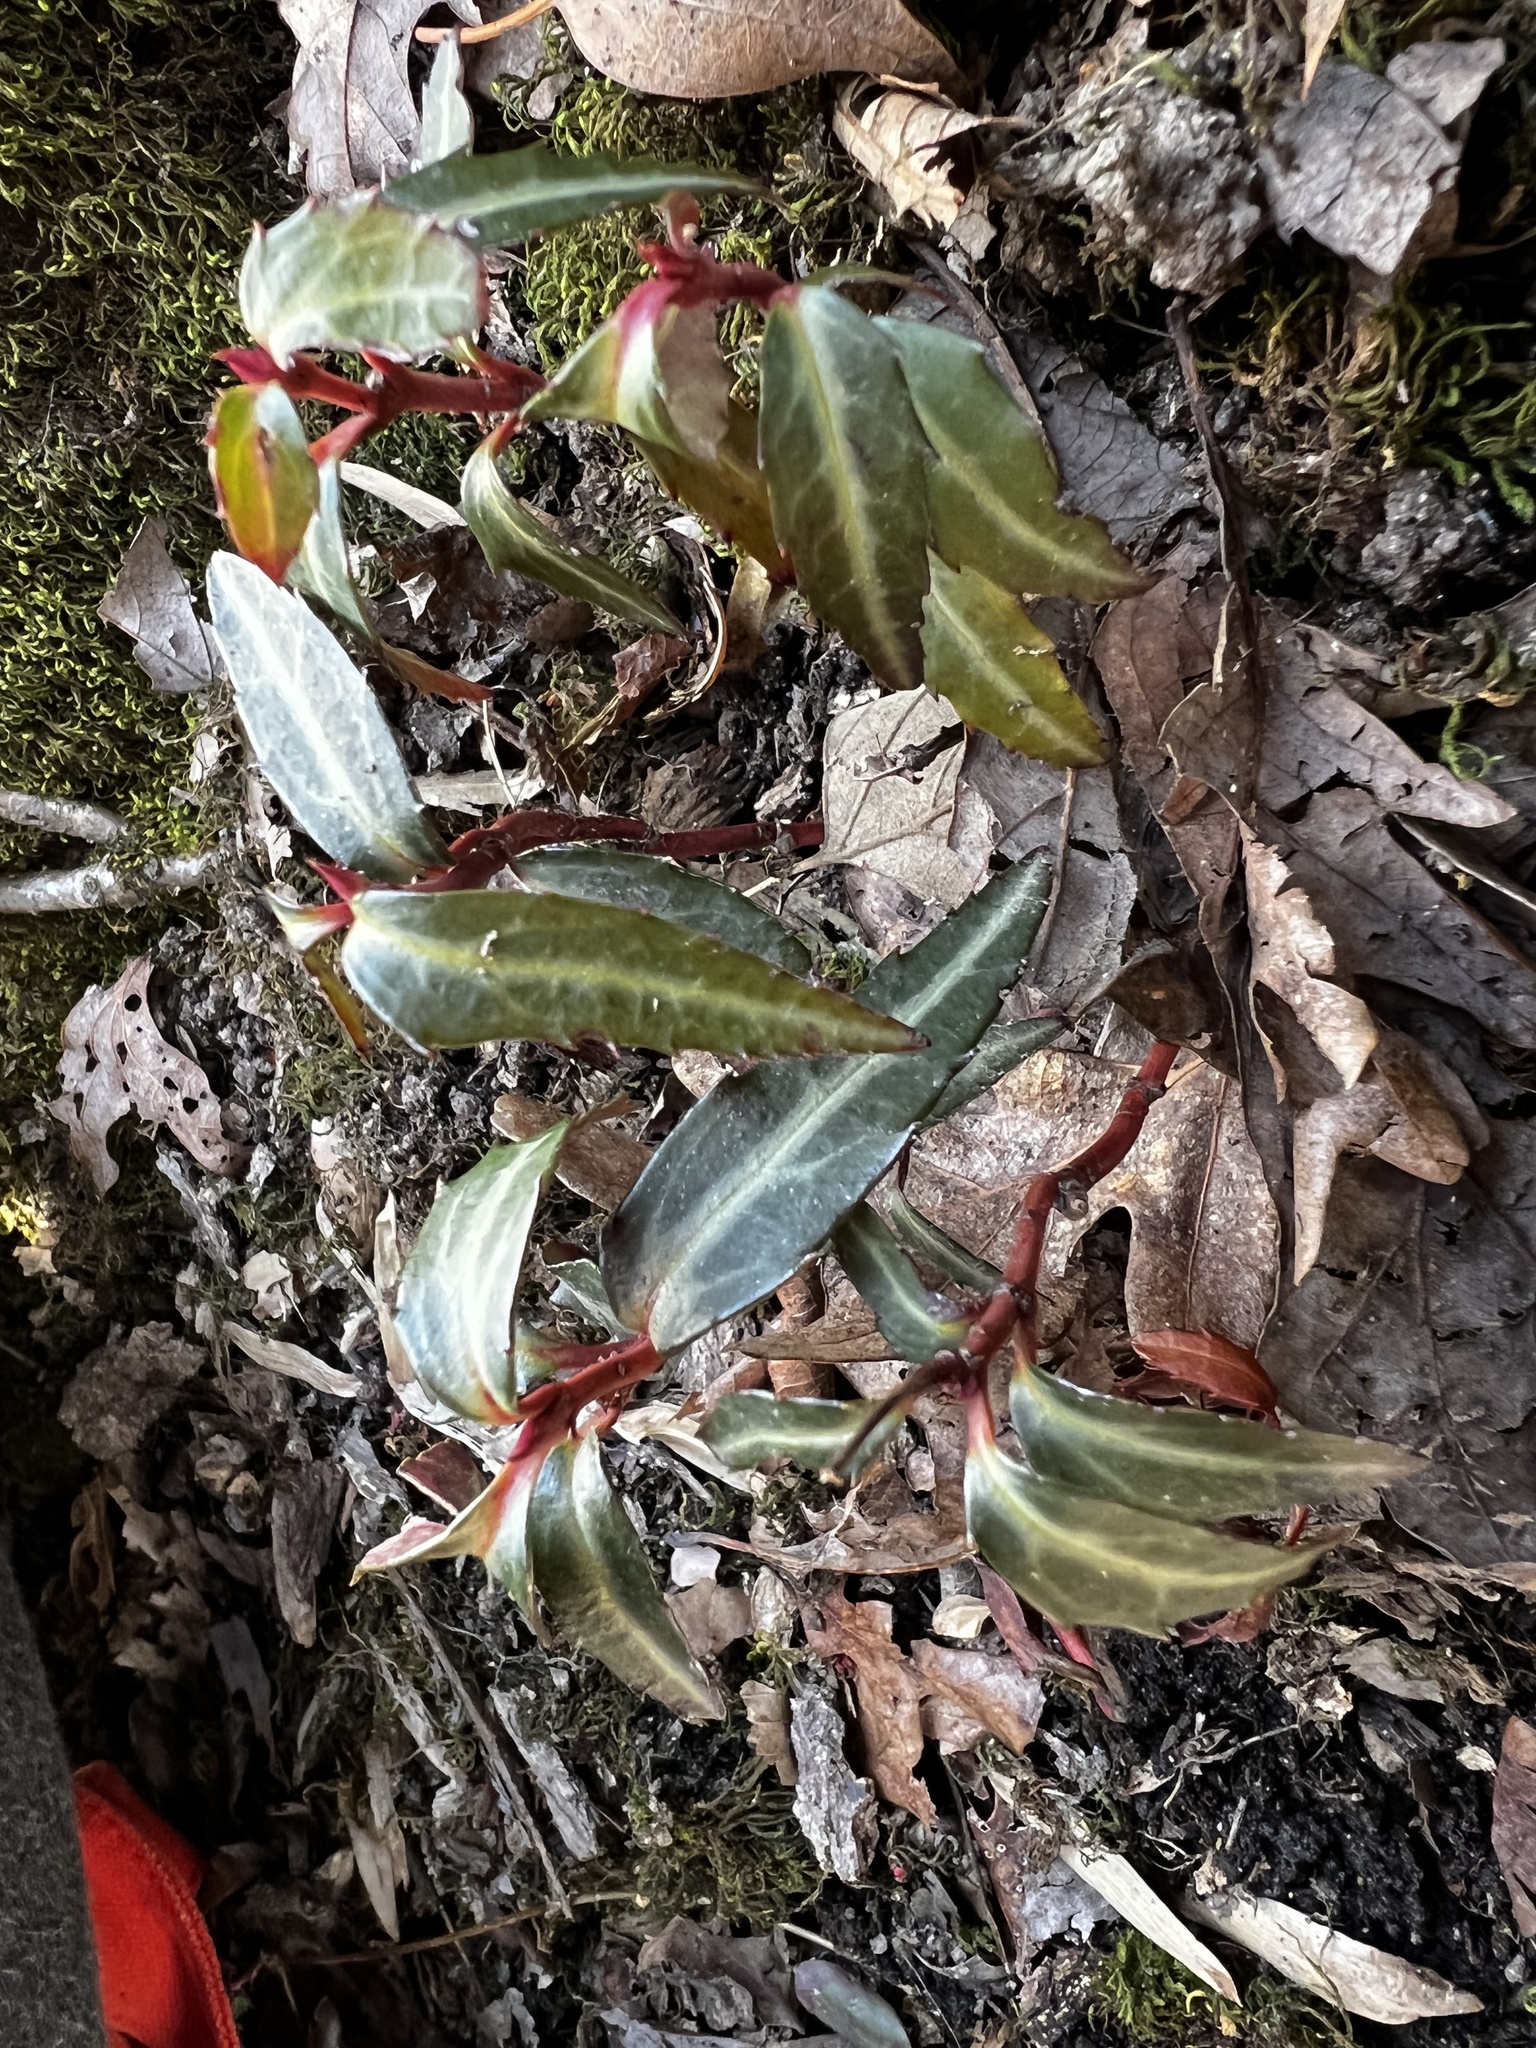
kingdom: Plantae
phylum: Tracheophyta
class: Magnoliopsida
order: Ericales
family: Ericaceae
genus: Chimaphila
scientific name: Chimaphila maculata
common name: Spotted pipsissewa
